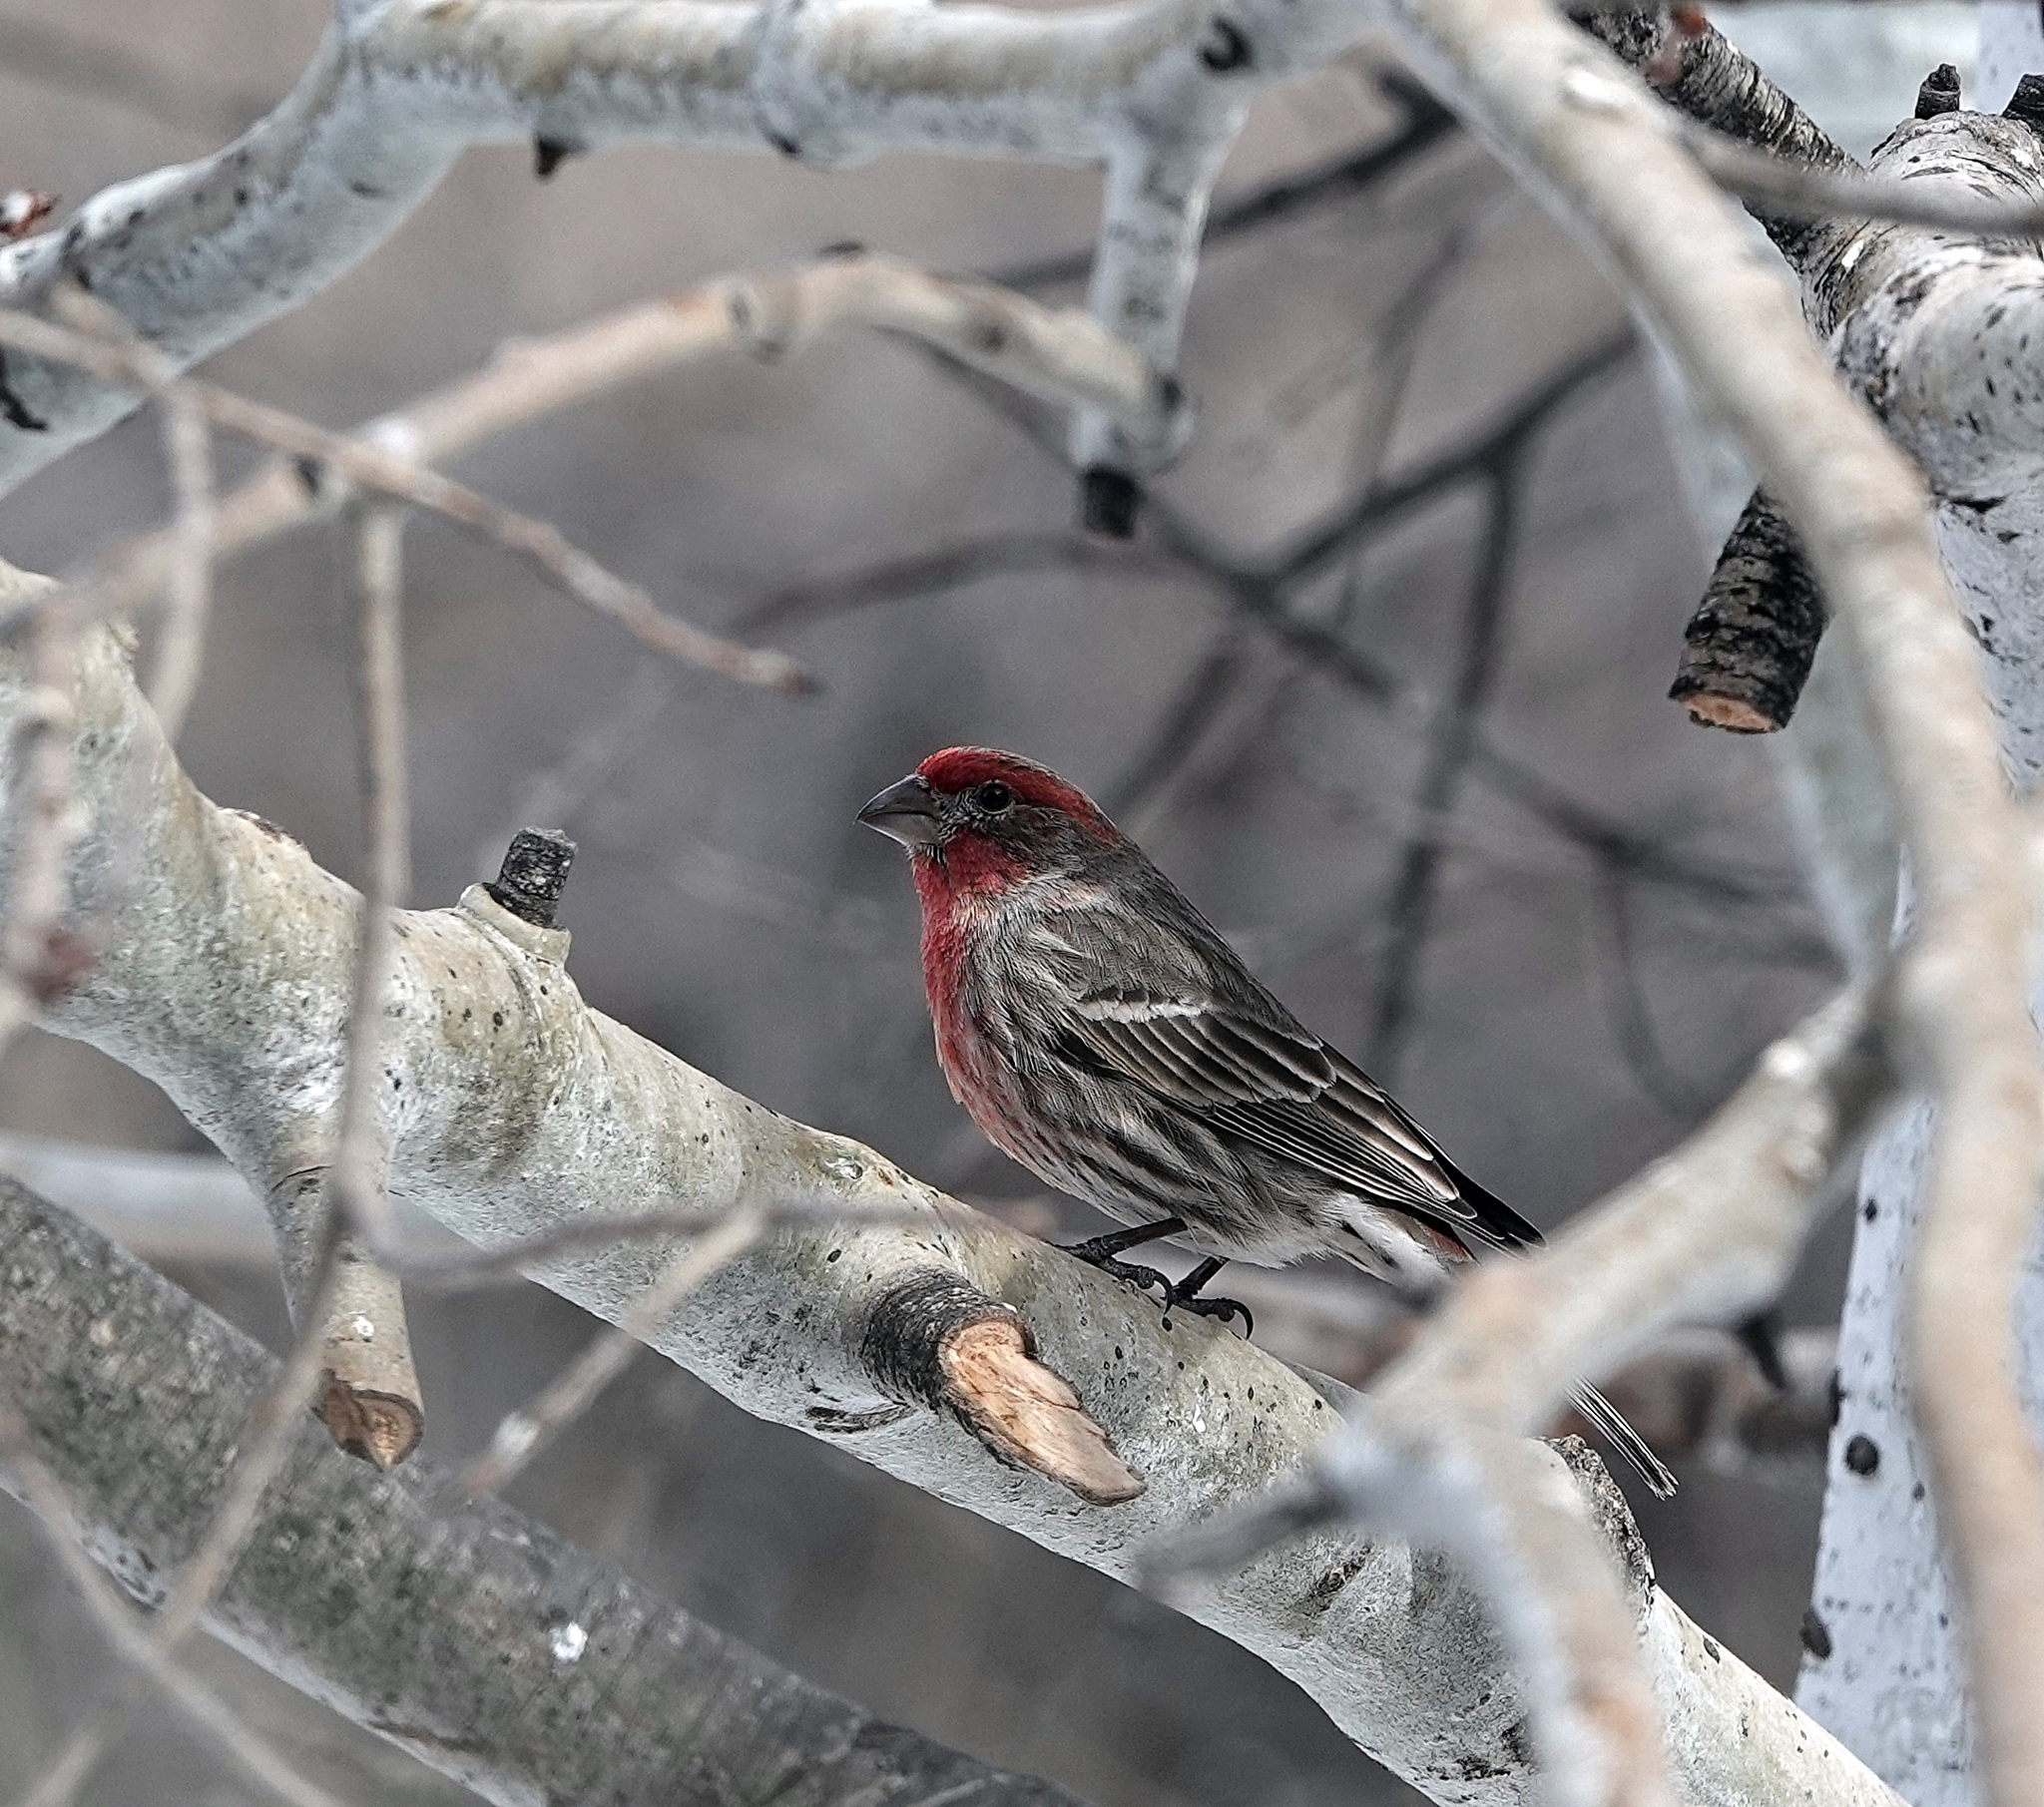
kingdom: Animalia
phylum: Chordata
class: Aves
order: Passeriformes
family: Fringillidae
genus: Haemorhous
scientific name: Haemorhous mexicanus
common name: House finch
